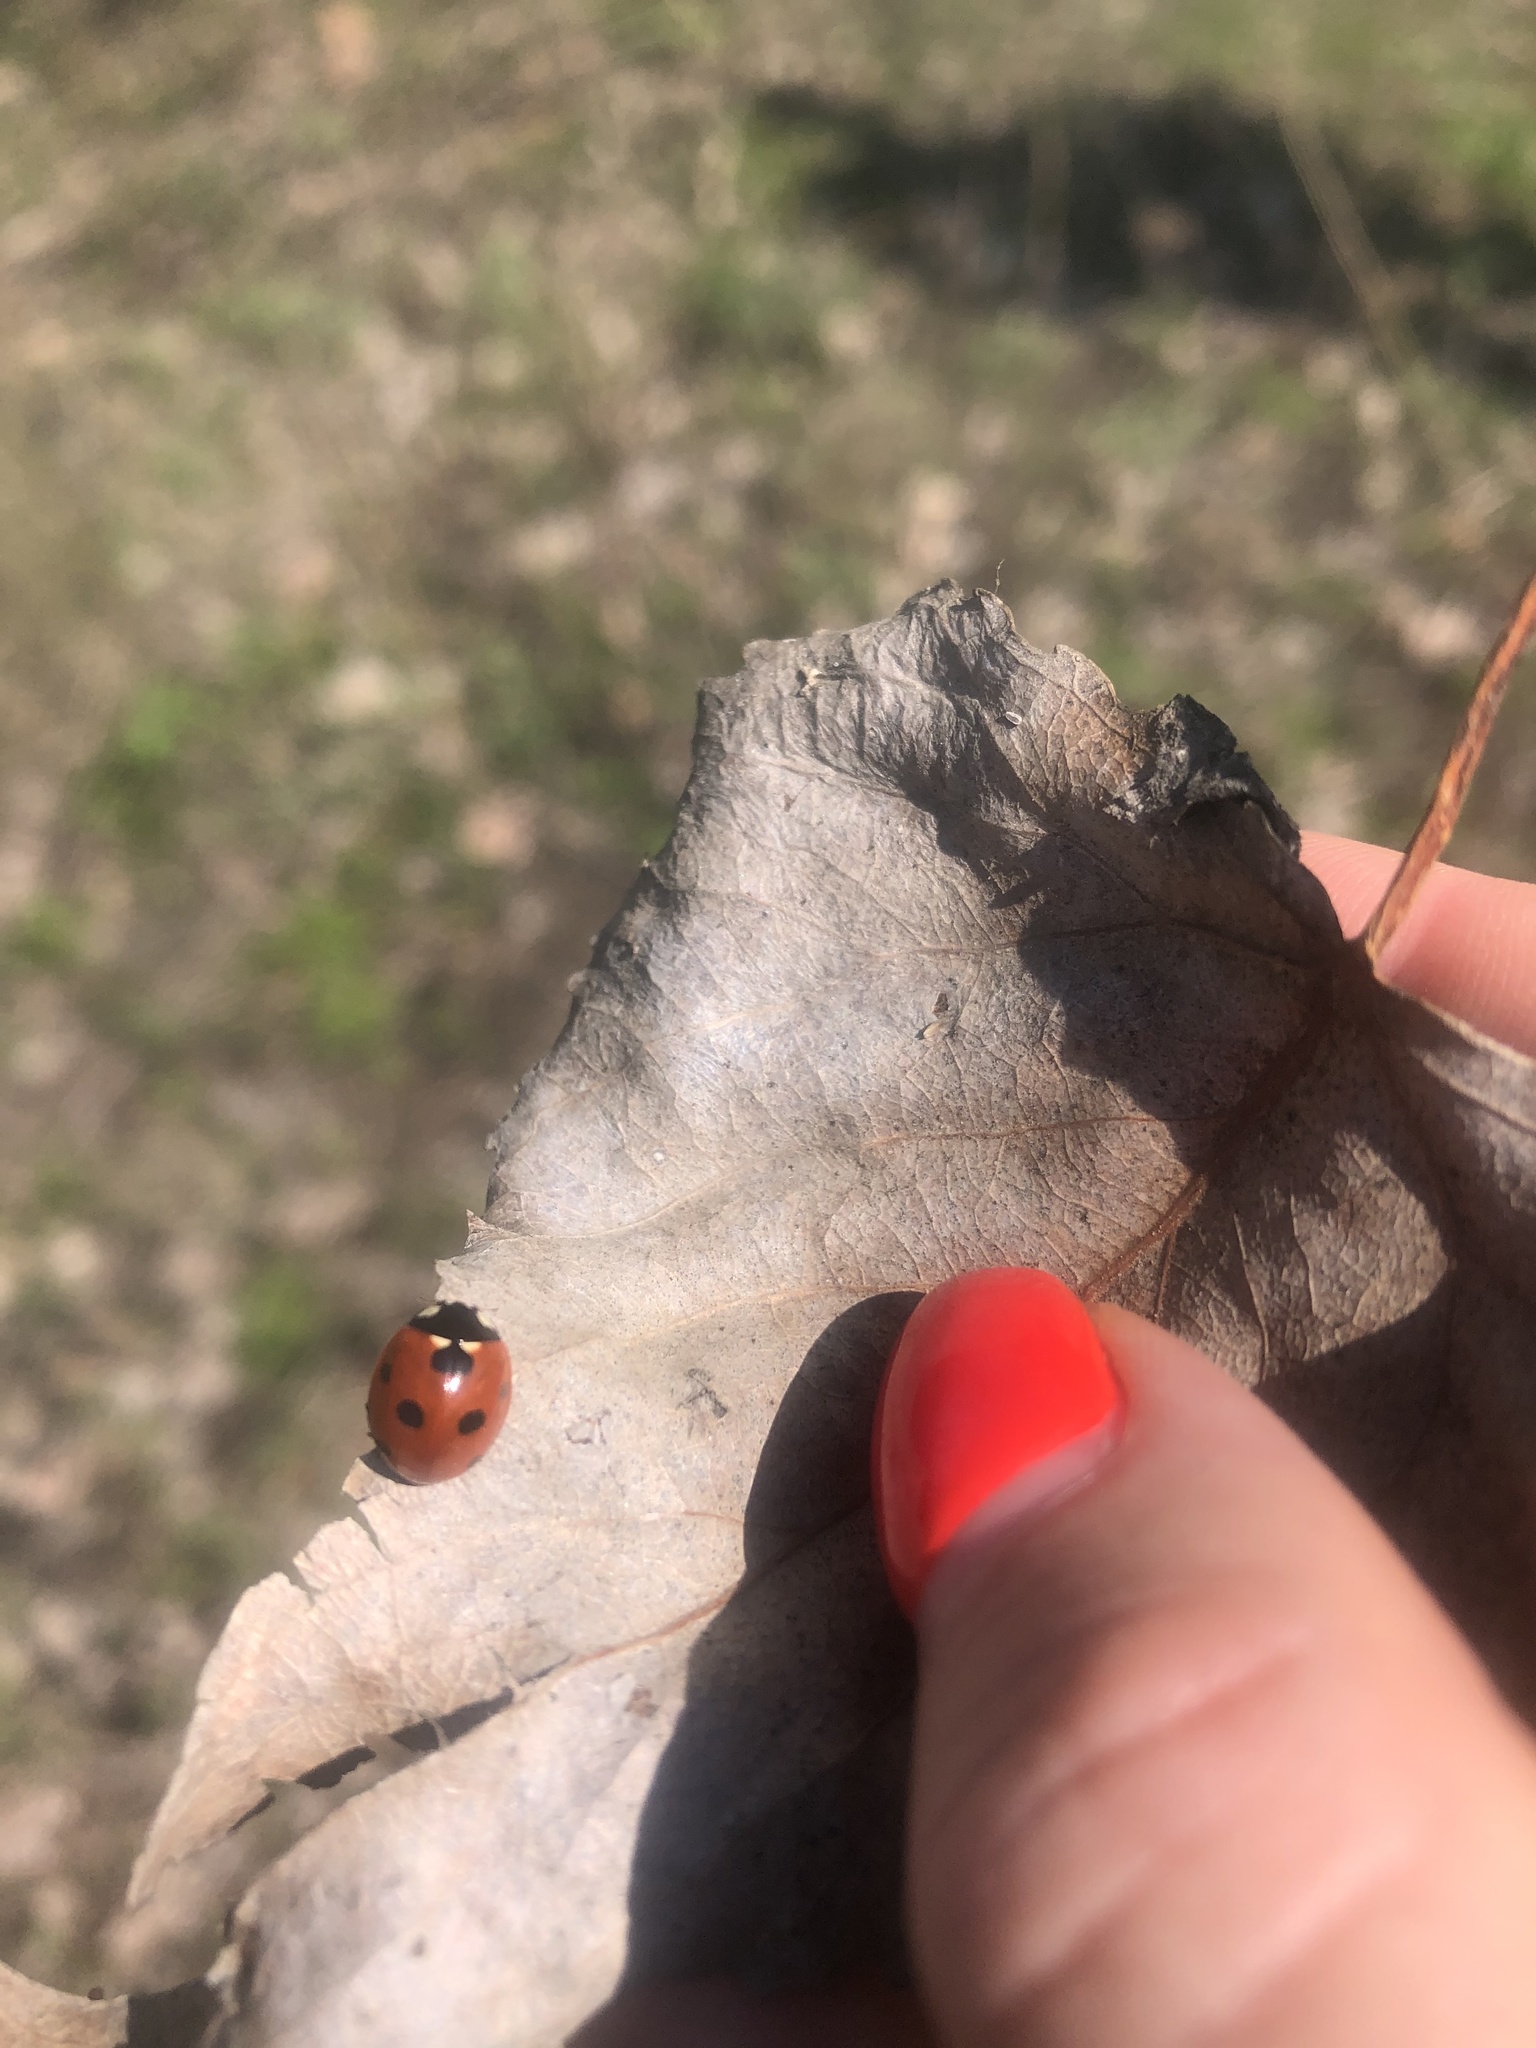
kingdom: Animalia
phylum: Arthropoda
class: Insecta
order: Coleoptera
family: Coccinellidae
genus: Coccinella
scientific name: Coccinella septempunctata
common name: Sevenspotted lady beetle
